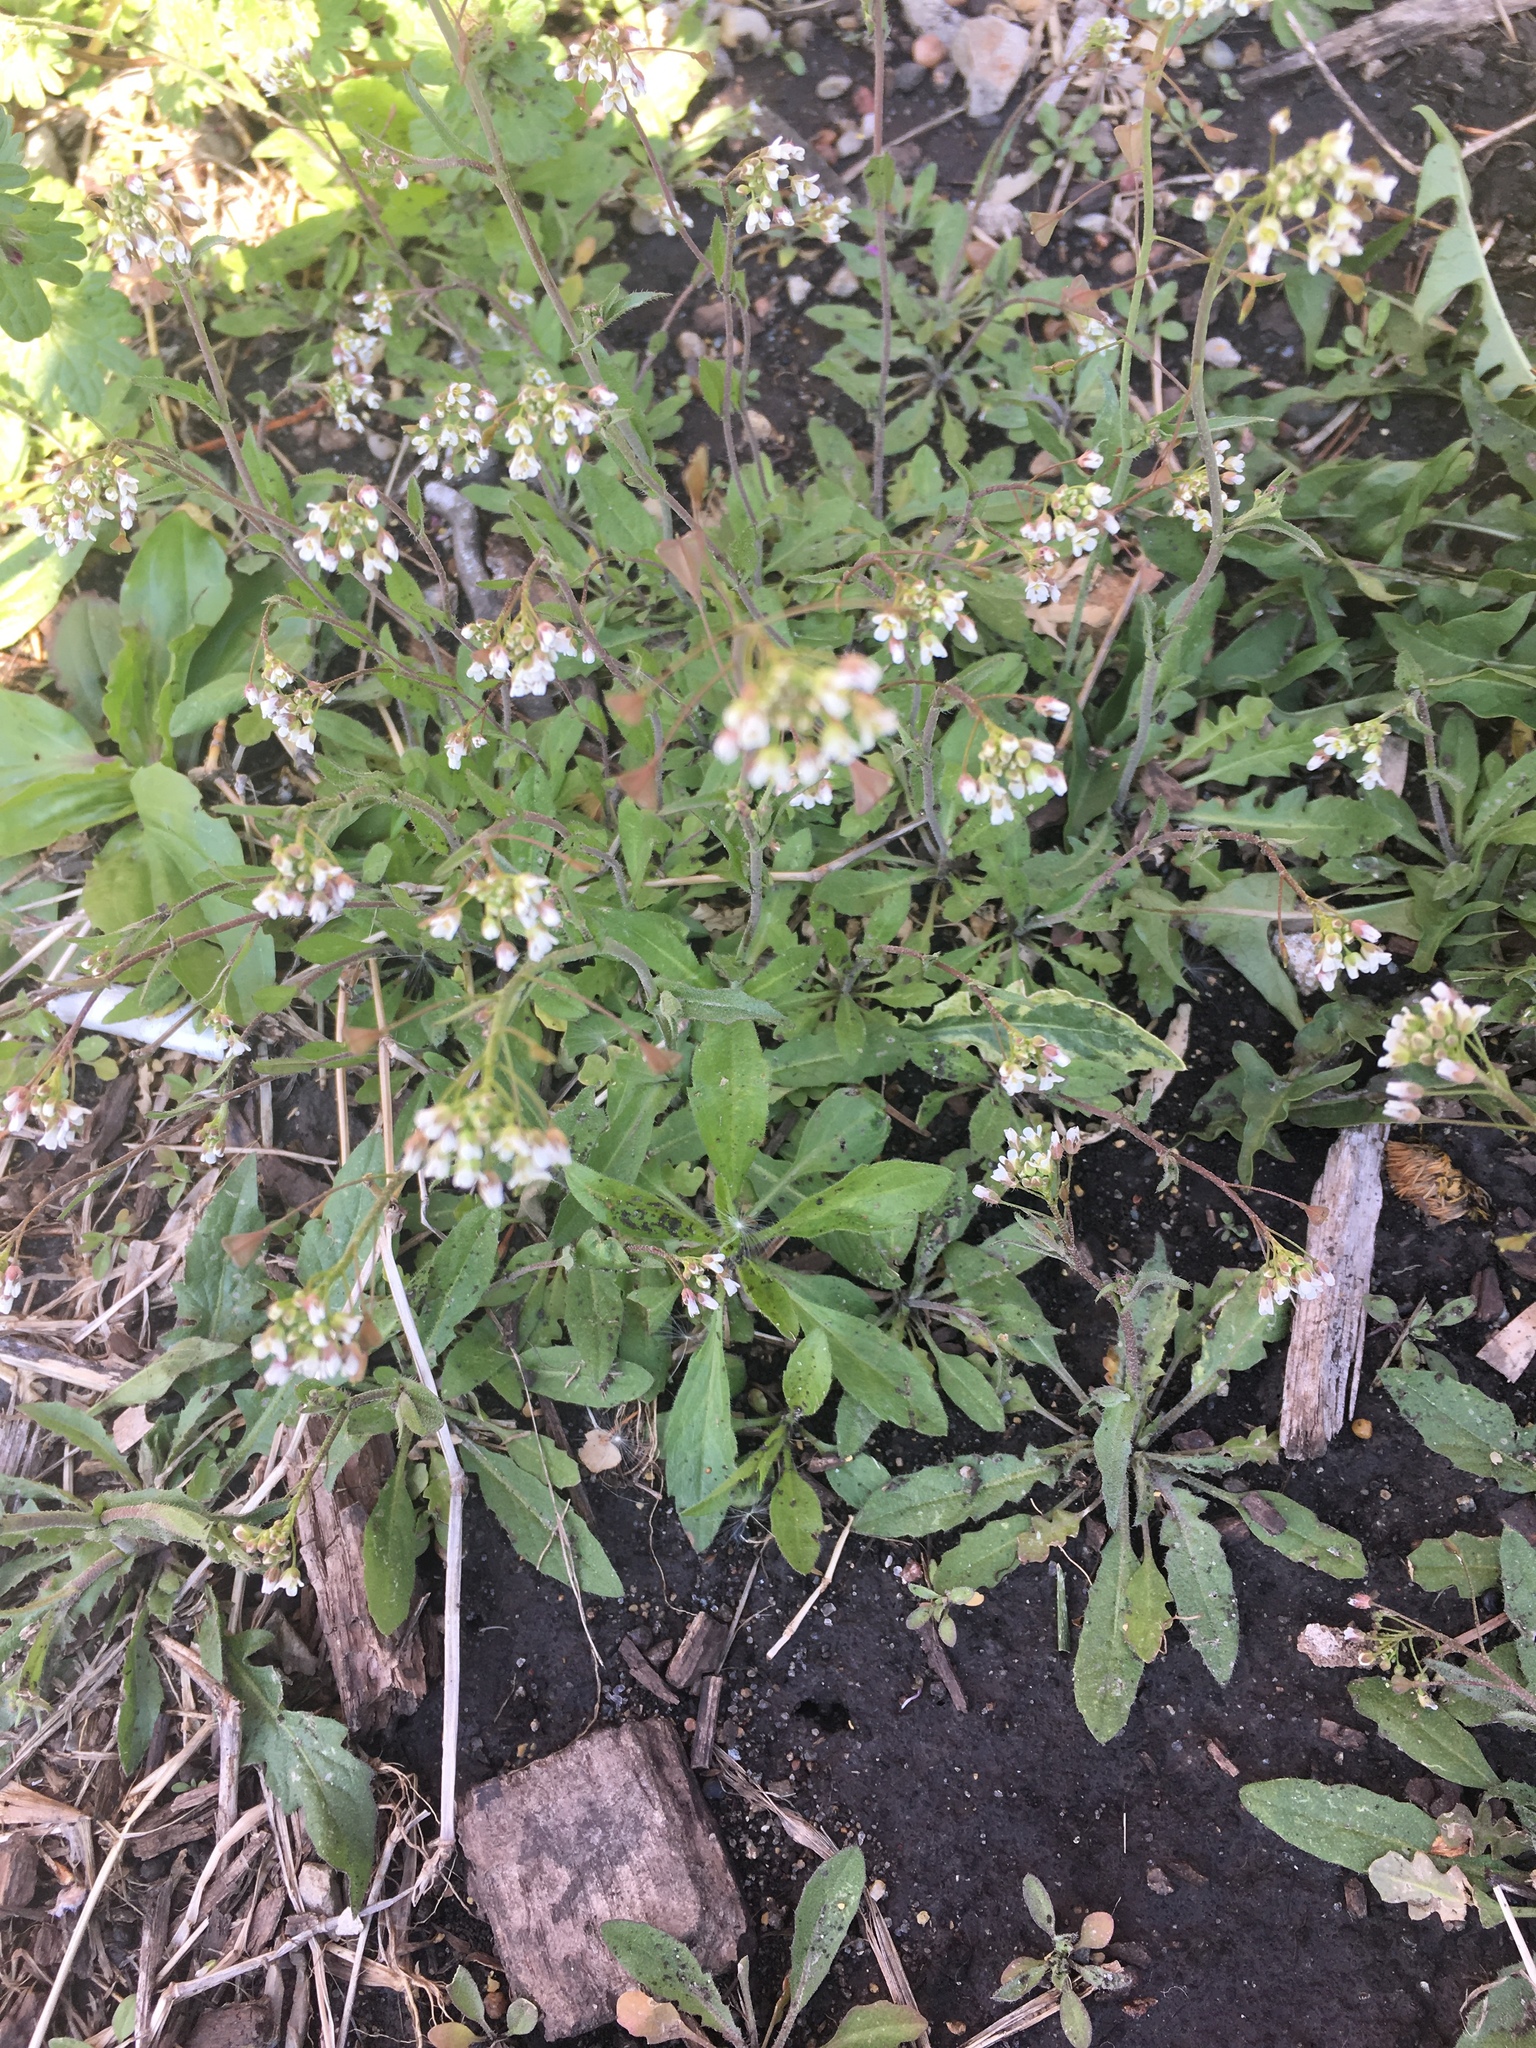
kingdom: Plantae
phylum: Tracheophyta
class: Magnoliopsida
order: Brassicales
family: Brassicaceae
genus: Capsella
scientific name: Capsella bursa-pastoris
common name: Shepherd's purse
